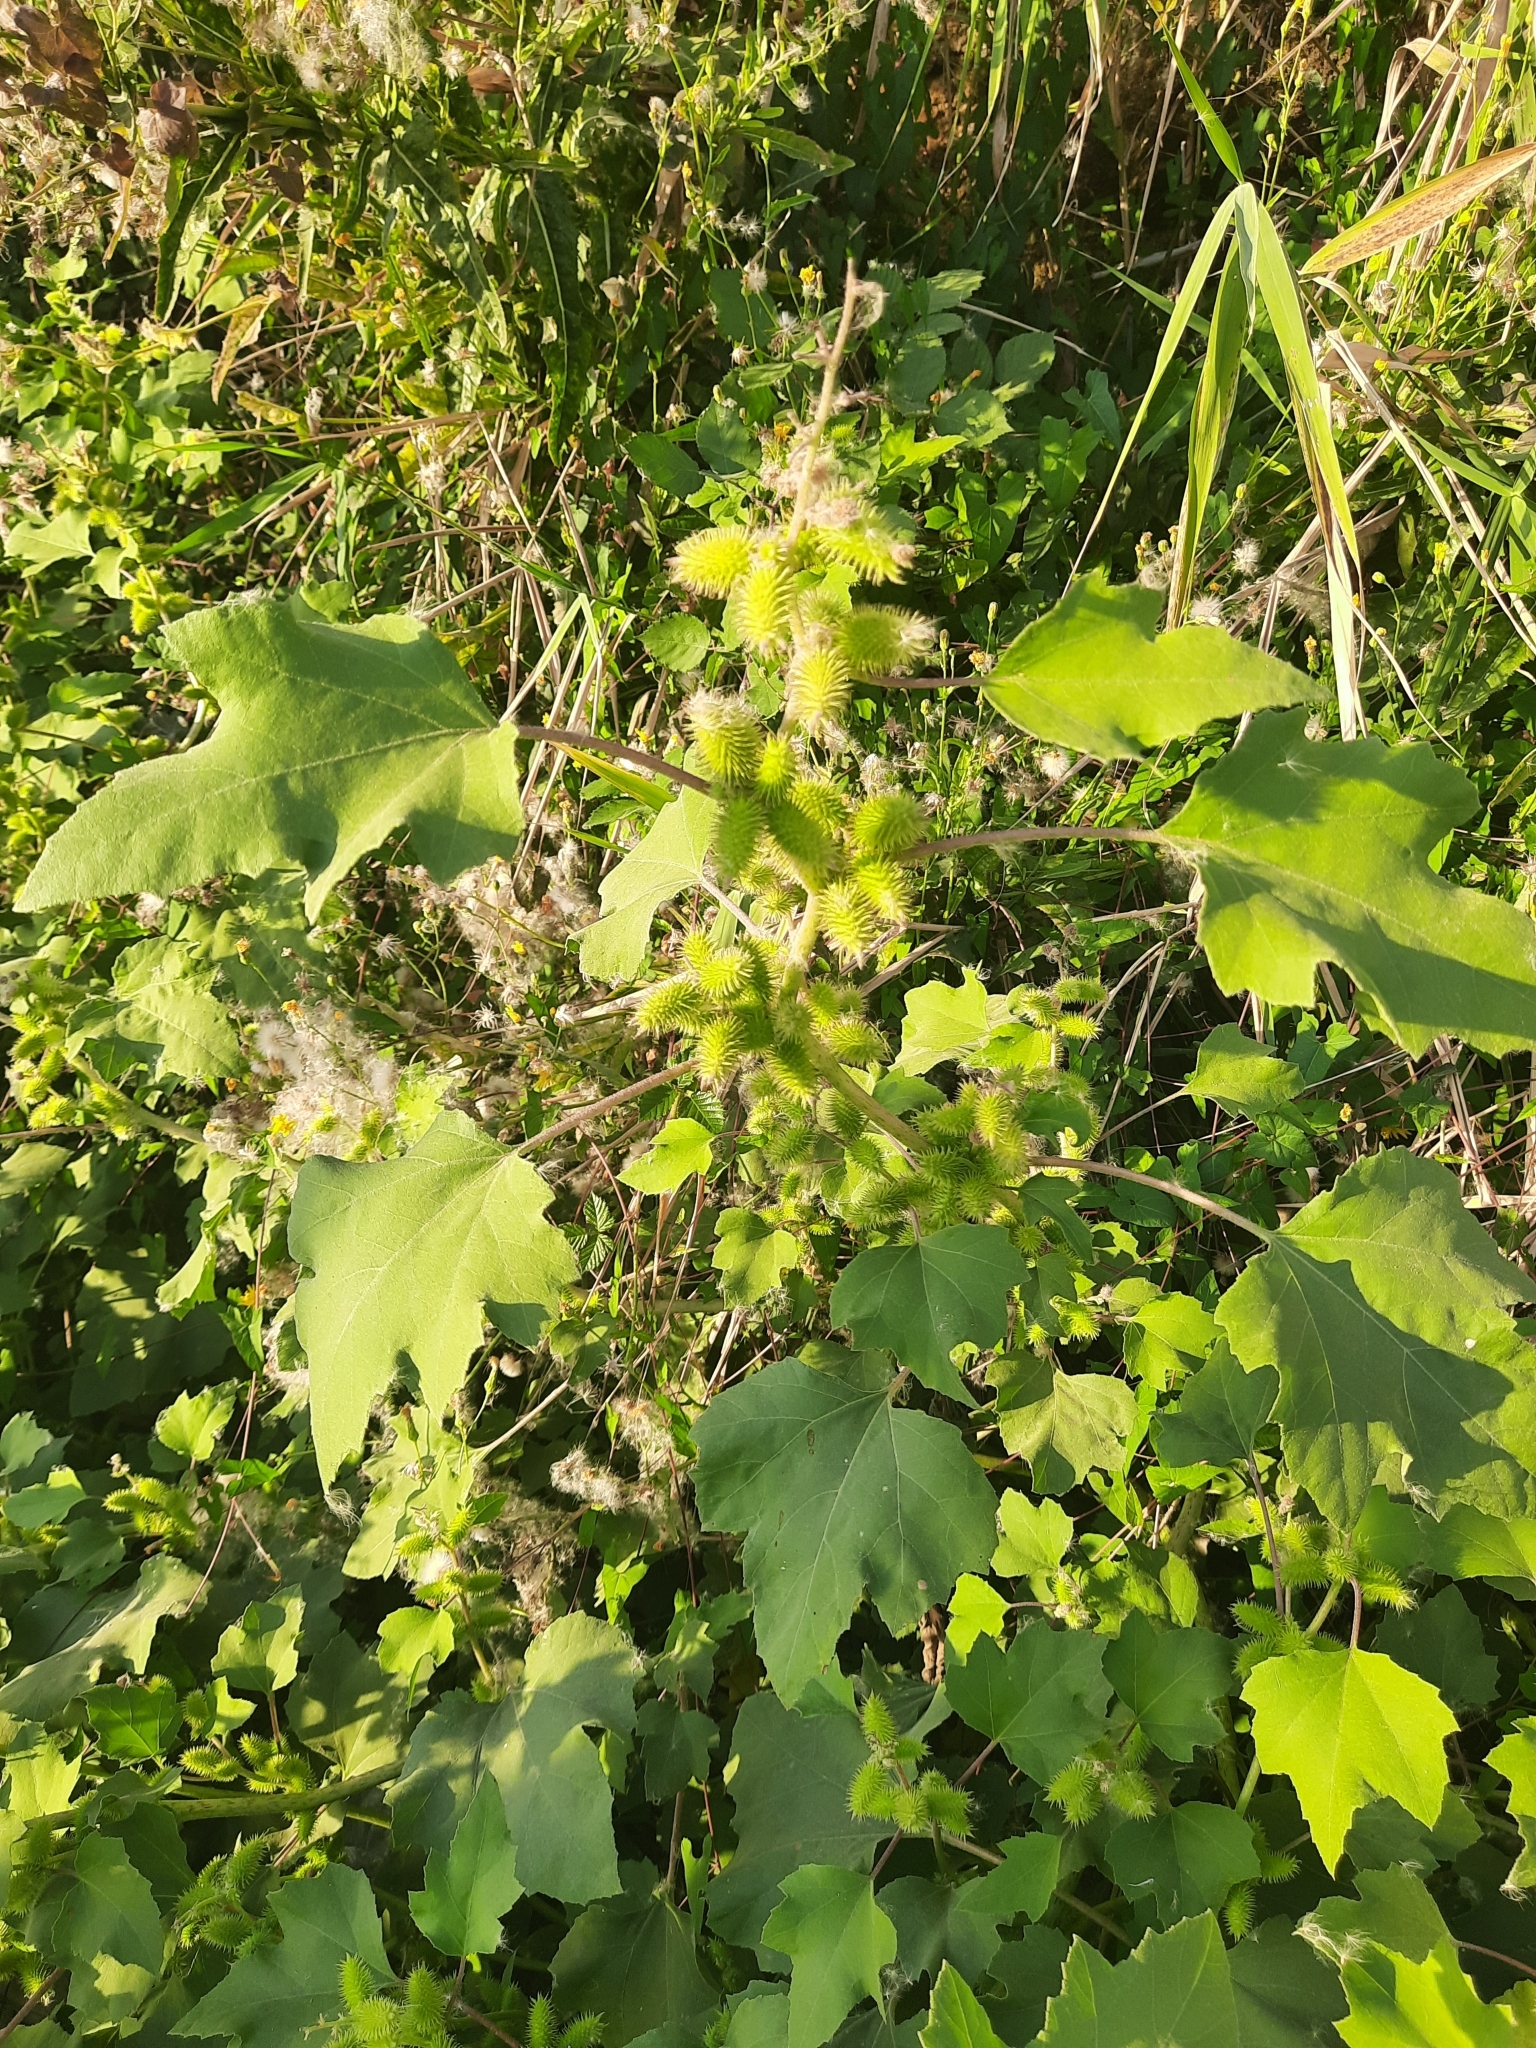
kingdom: Plantae
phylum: Tracheophyta
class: Magnoliopsida
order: Asterales
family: Asteraceae
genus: Xanthium
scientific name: Xanthium orientale
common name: Californian burr
